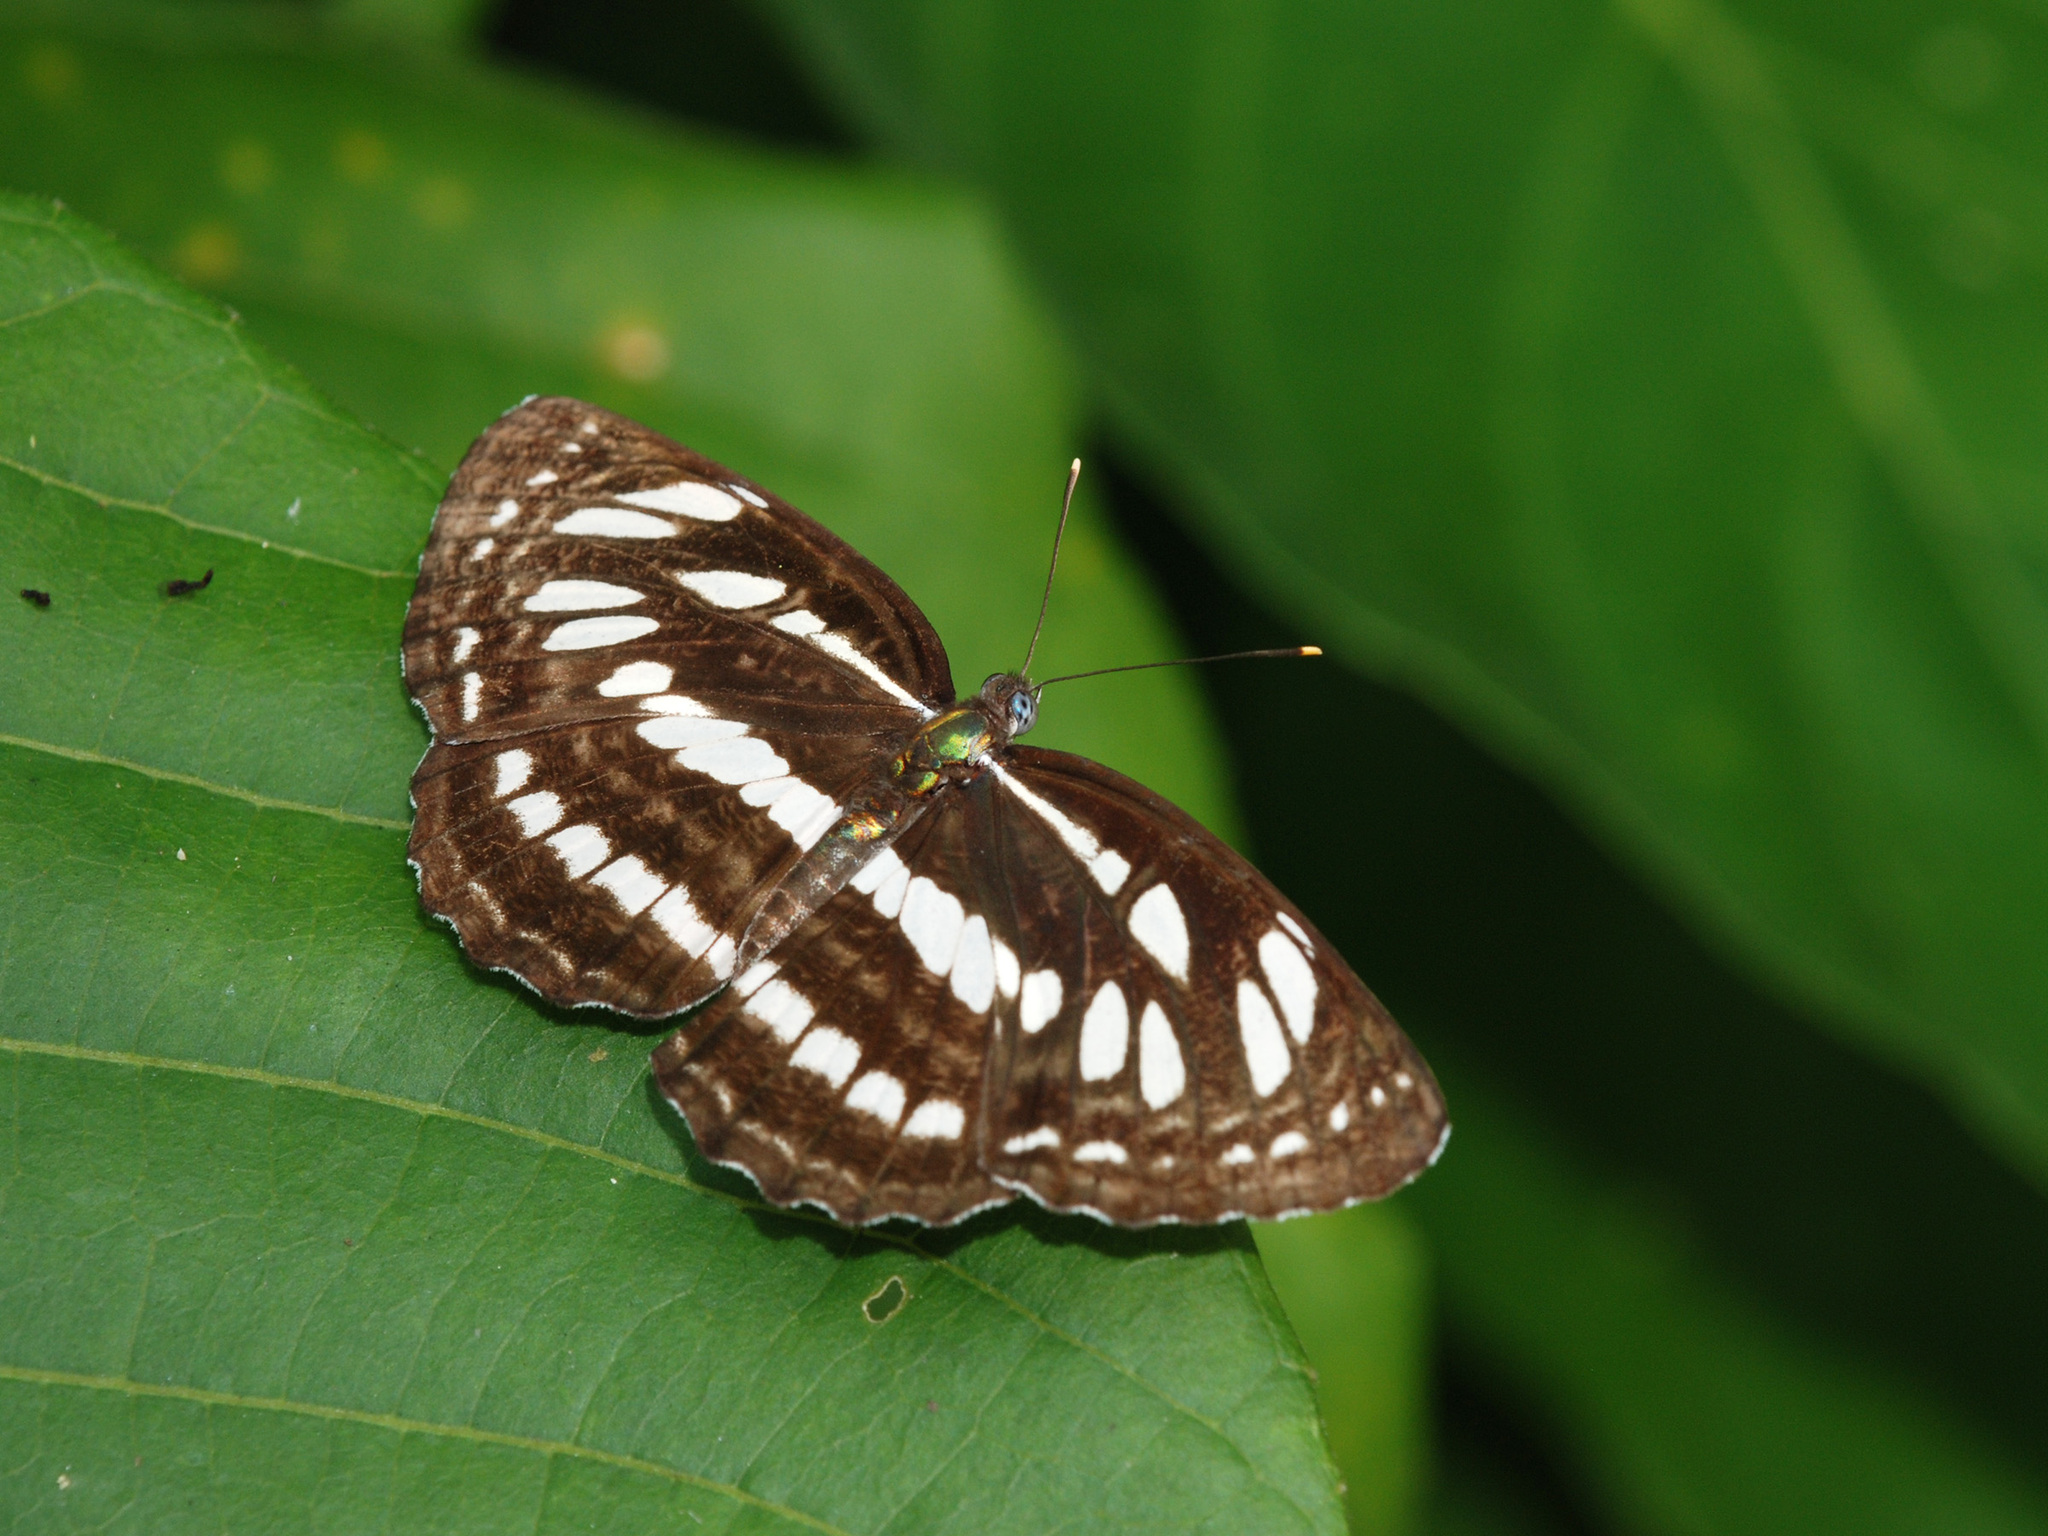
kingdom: Animalia
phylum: Arthropoda
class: Insecta
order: Lepidoptera
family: Nymphalidae
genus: Neptis
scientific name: Neptis hylas
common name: Common sailer
